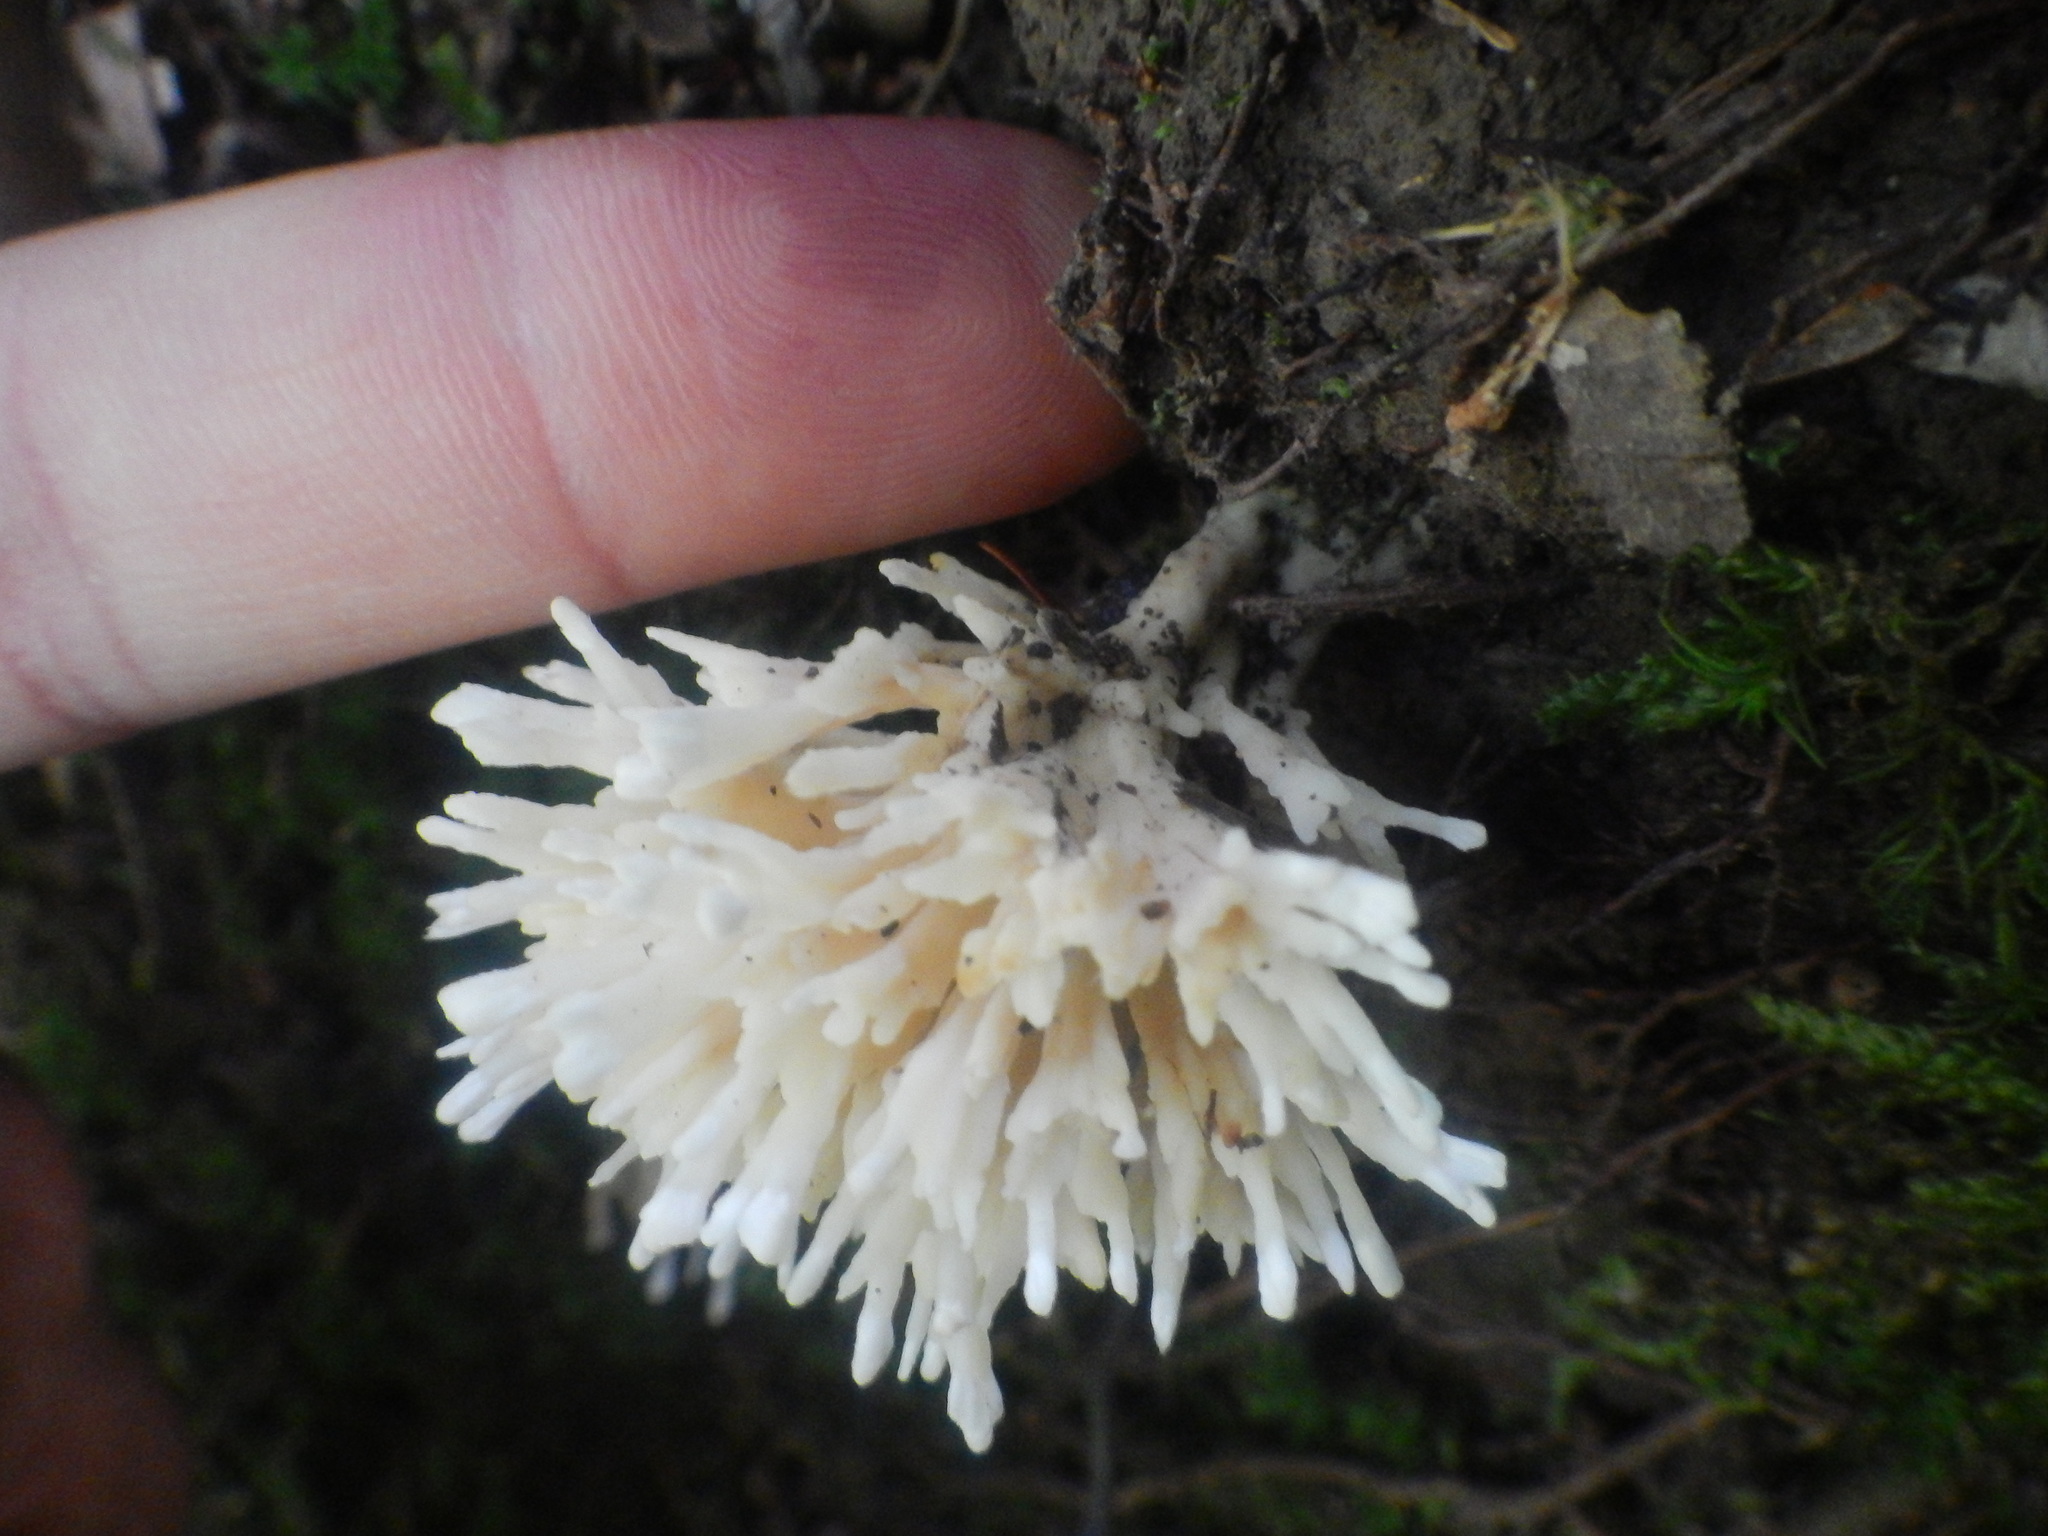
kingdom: Fungi
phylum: Basidiomycota
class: Agaricomycetes
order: Sebacinales
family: Sebacinaceae
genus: Sebacina
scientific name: Sebacina schweinitzii
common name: Jellied false coral fungus
